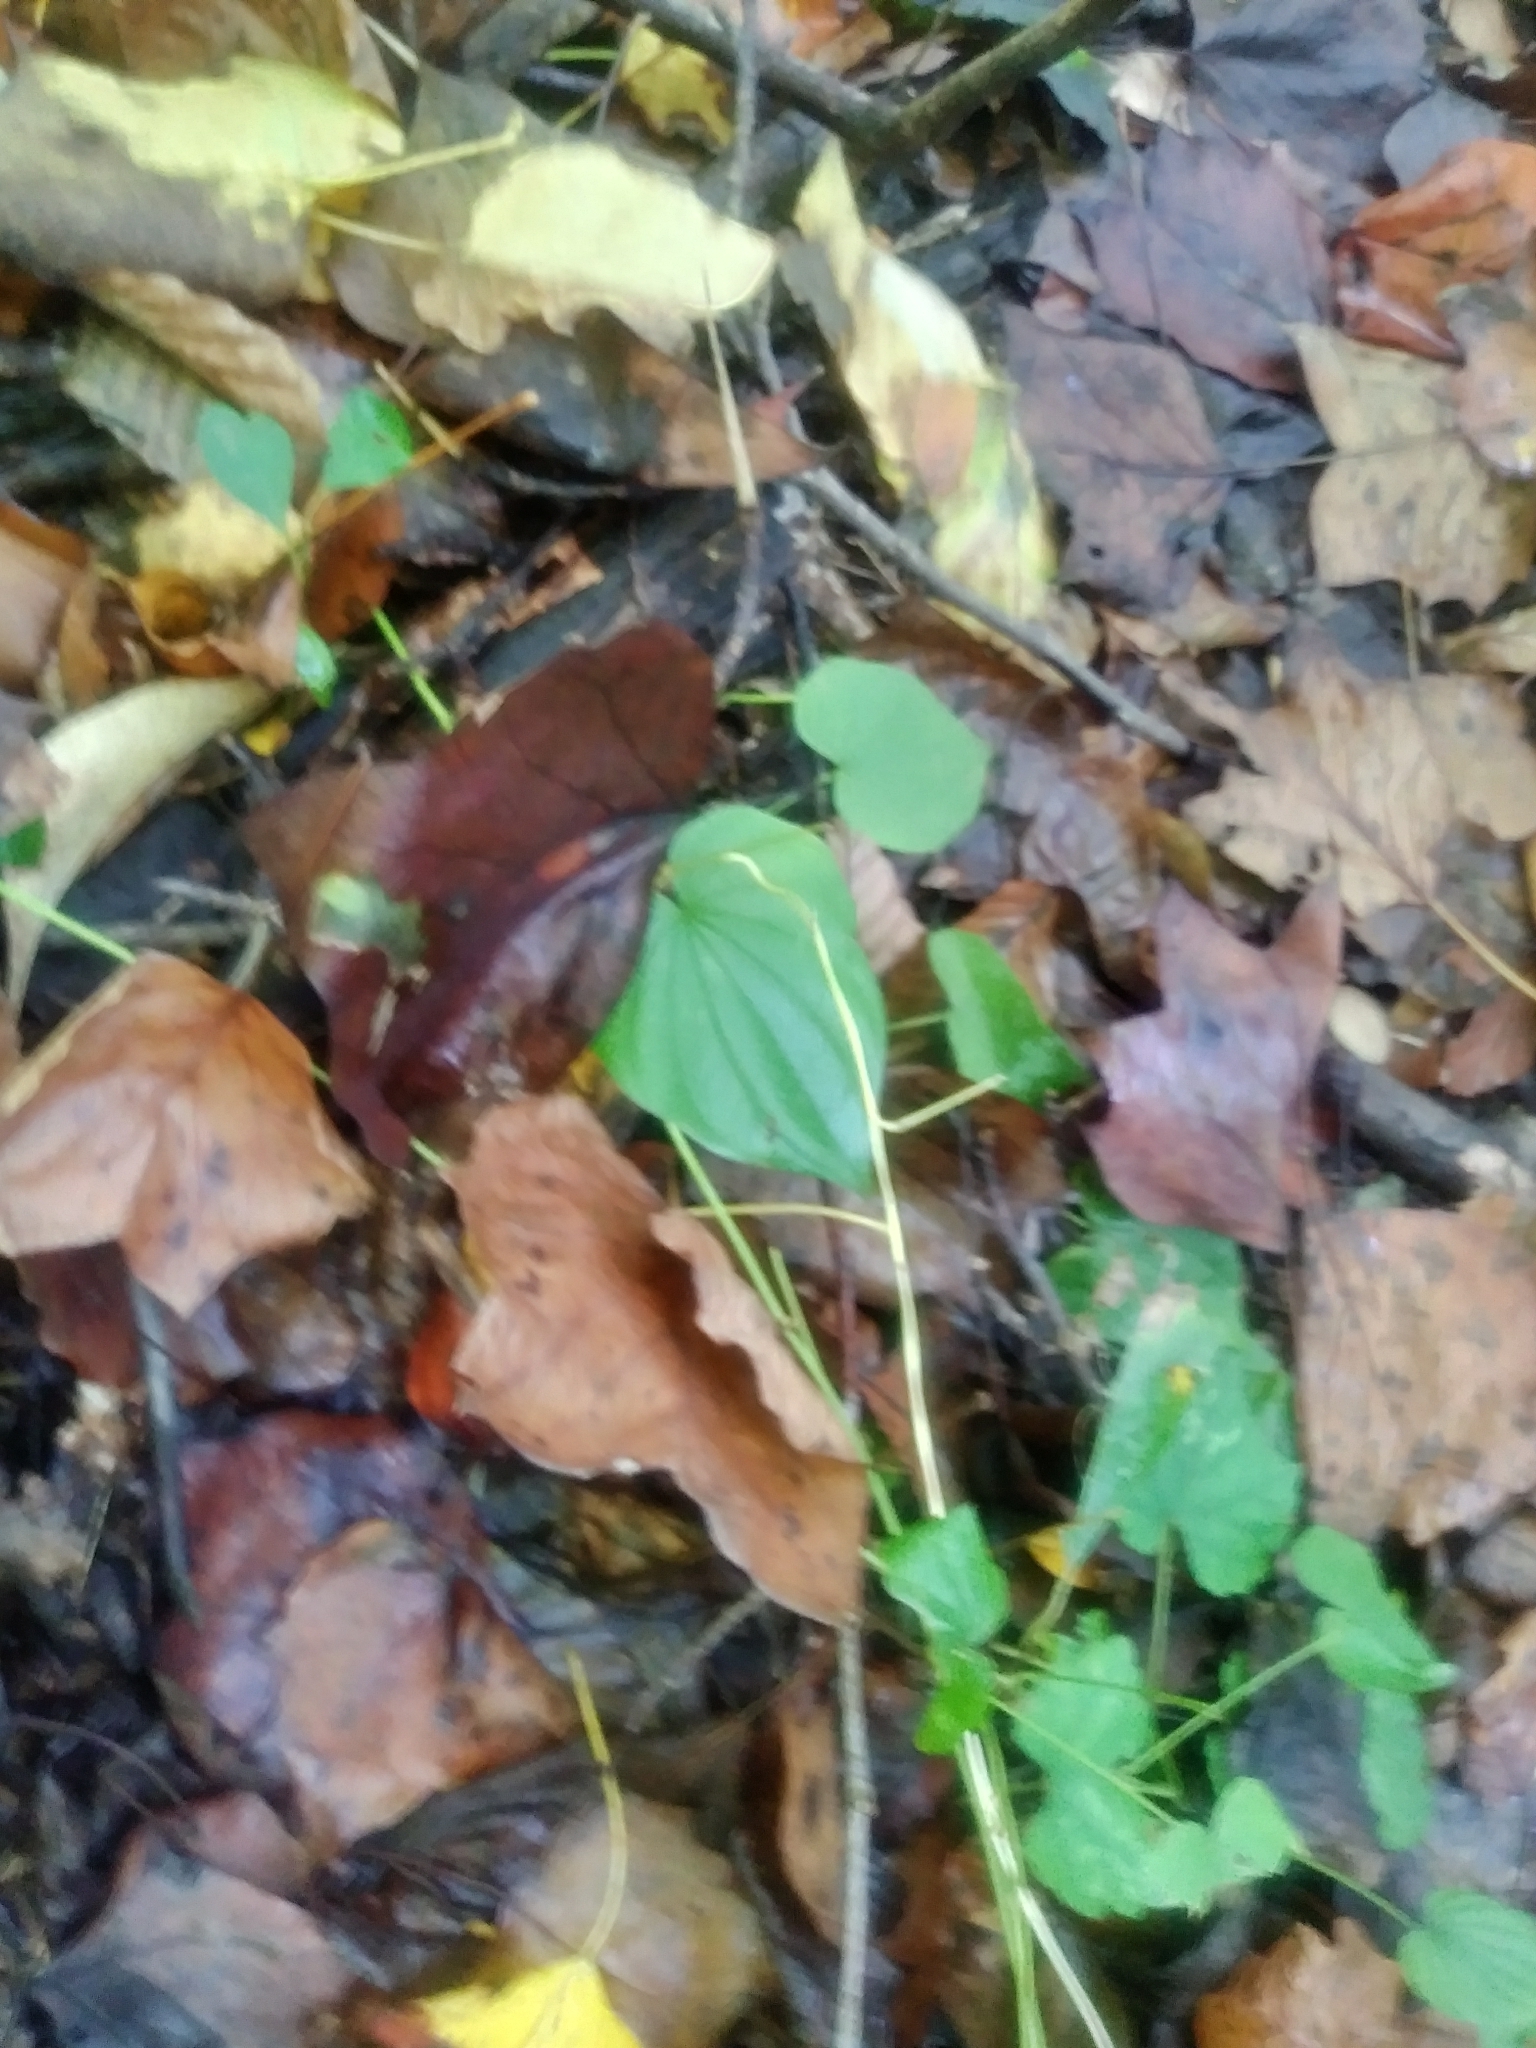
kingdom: Plantae
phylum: Tracheophyta
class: Liliopsida
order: Dioscoreales
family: Dioscoreaceae
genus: Dioscorea
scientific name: Dioscorea villosa
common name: Wild yam
